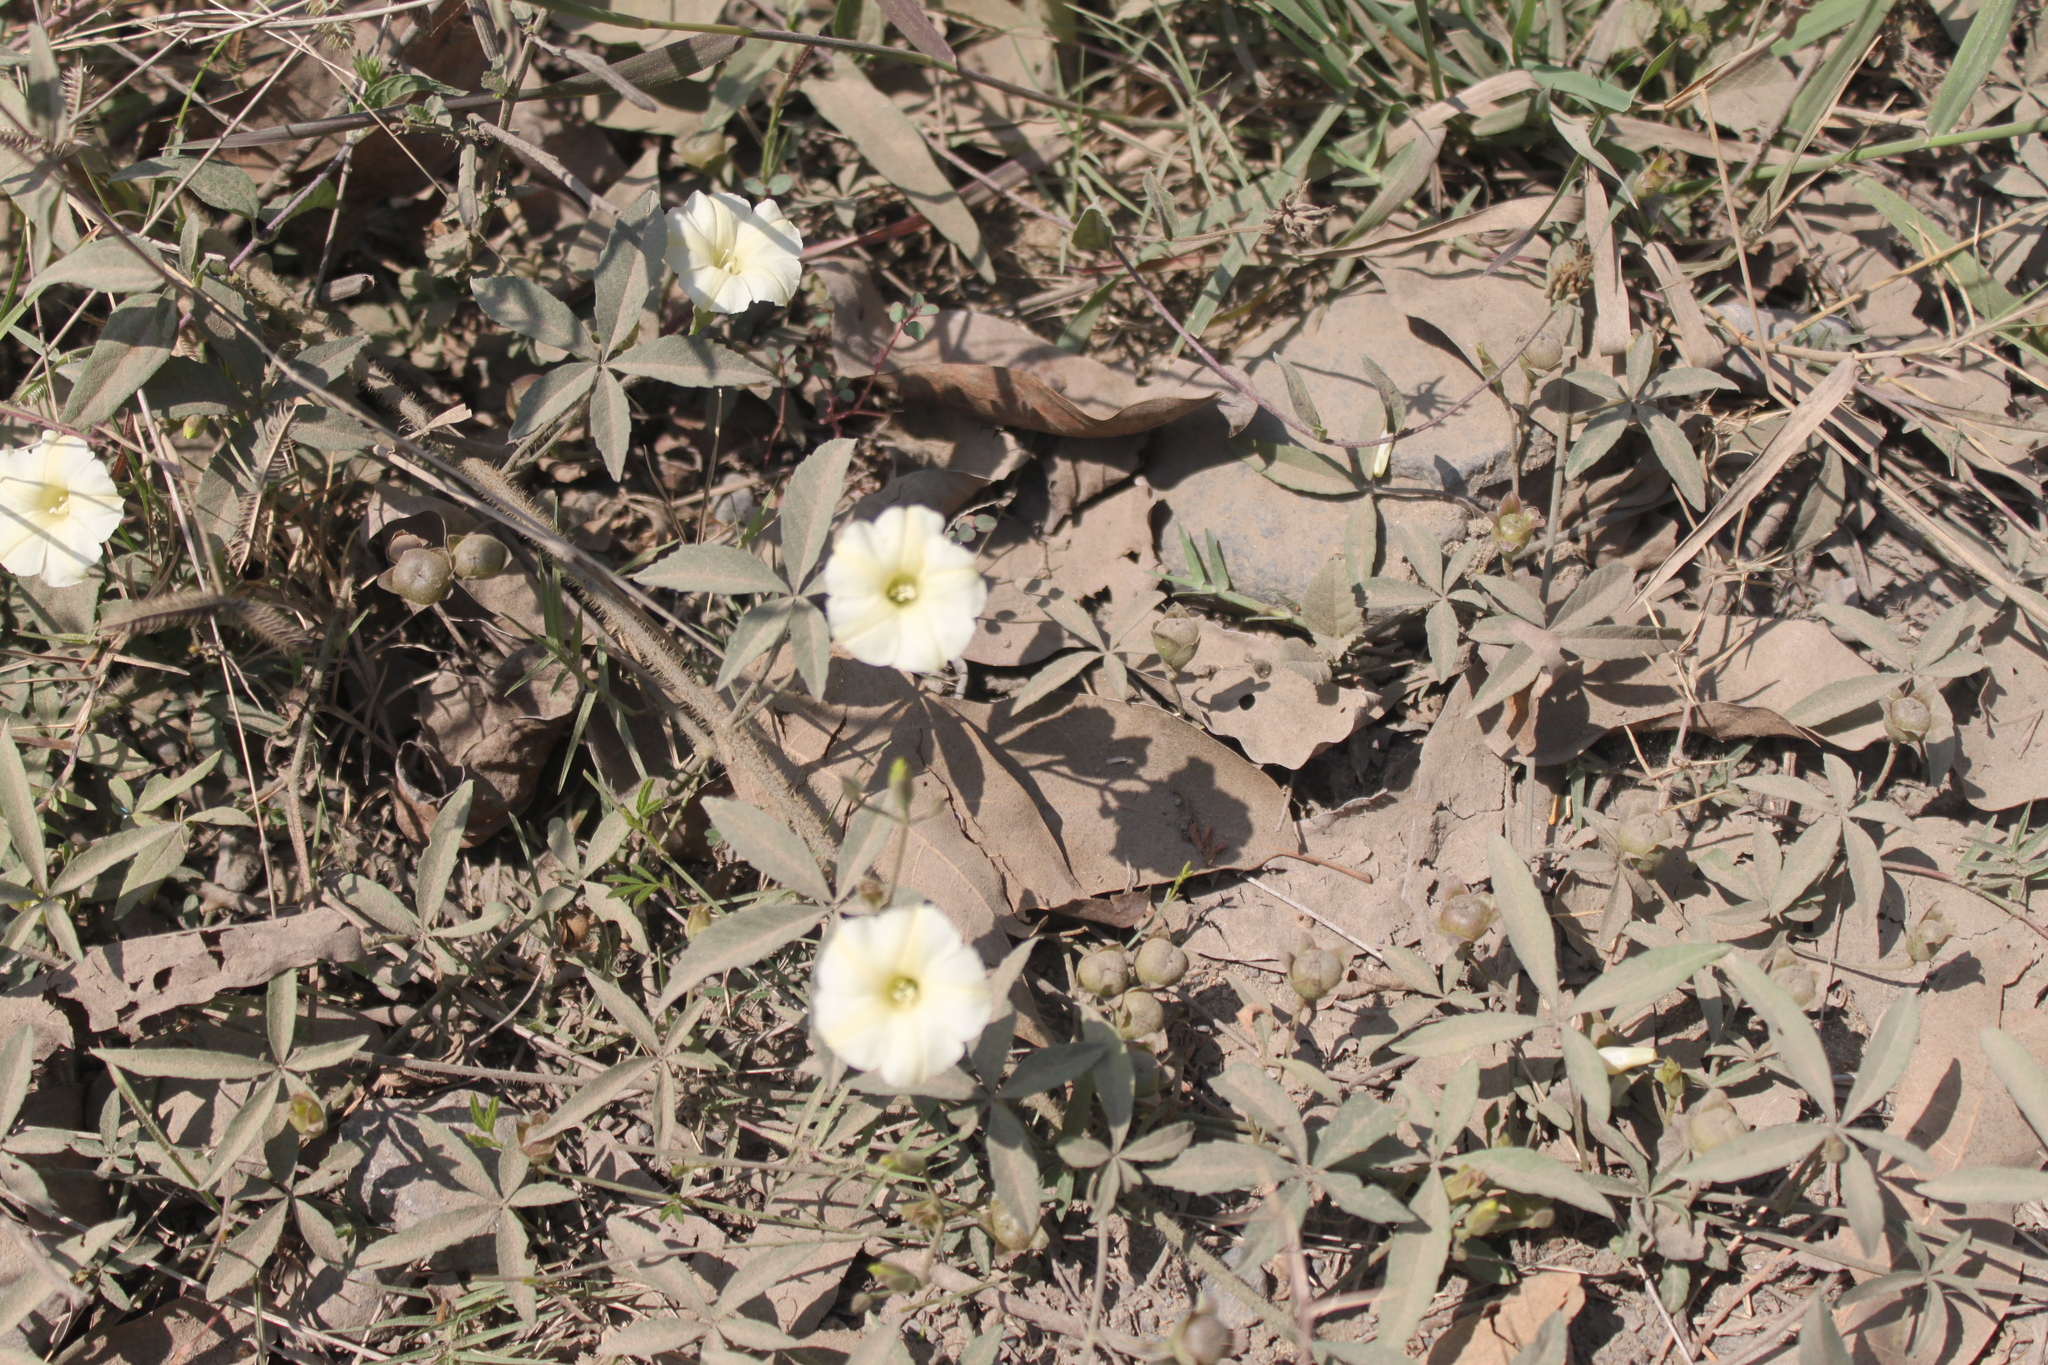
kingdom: Plantae
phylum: Tracheophyta
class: Magnoliopsida
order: Solanales
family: Convolvulaceae
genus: Distimake
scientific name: Distimake quinquefolius
